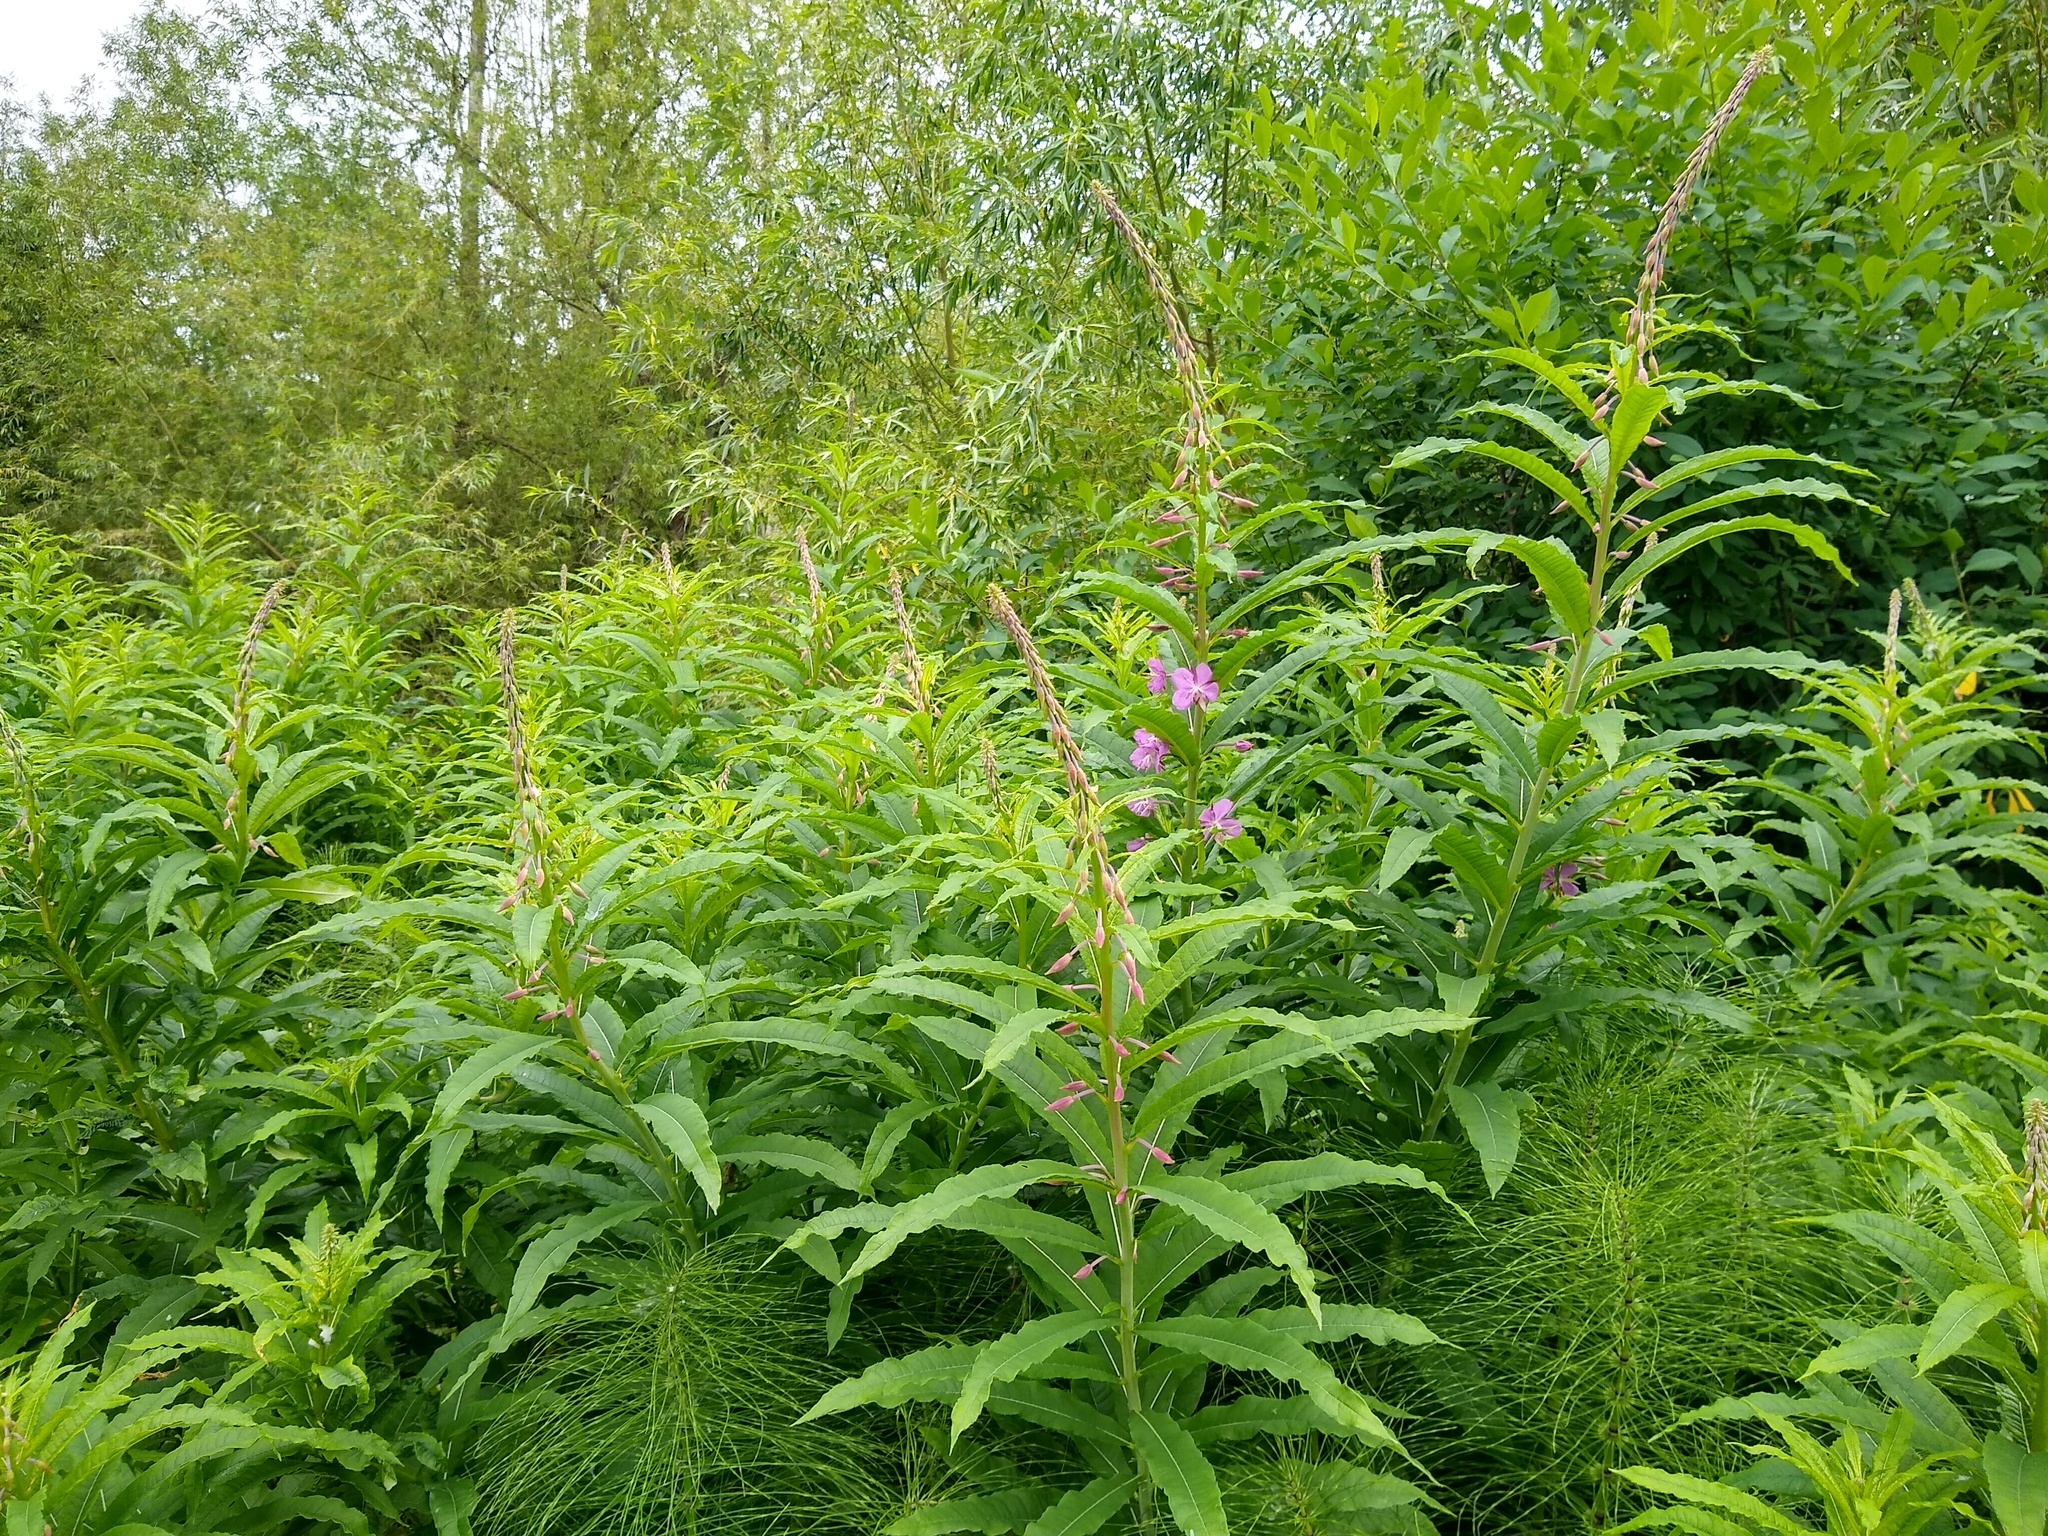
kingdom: Plantae
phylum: Tracheophyta
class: Magnoliopsida
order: Myrtales
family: Onagraceae
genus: Chamaenerion
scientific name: Chamaenerion angustifolium
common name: Fireweed
